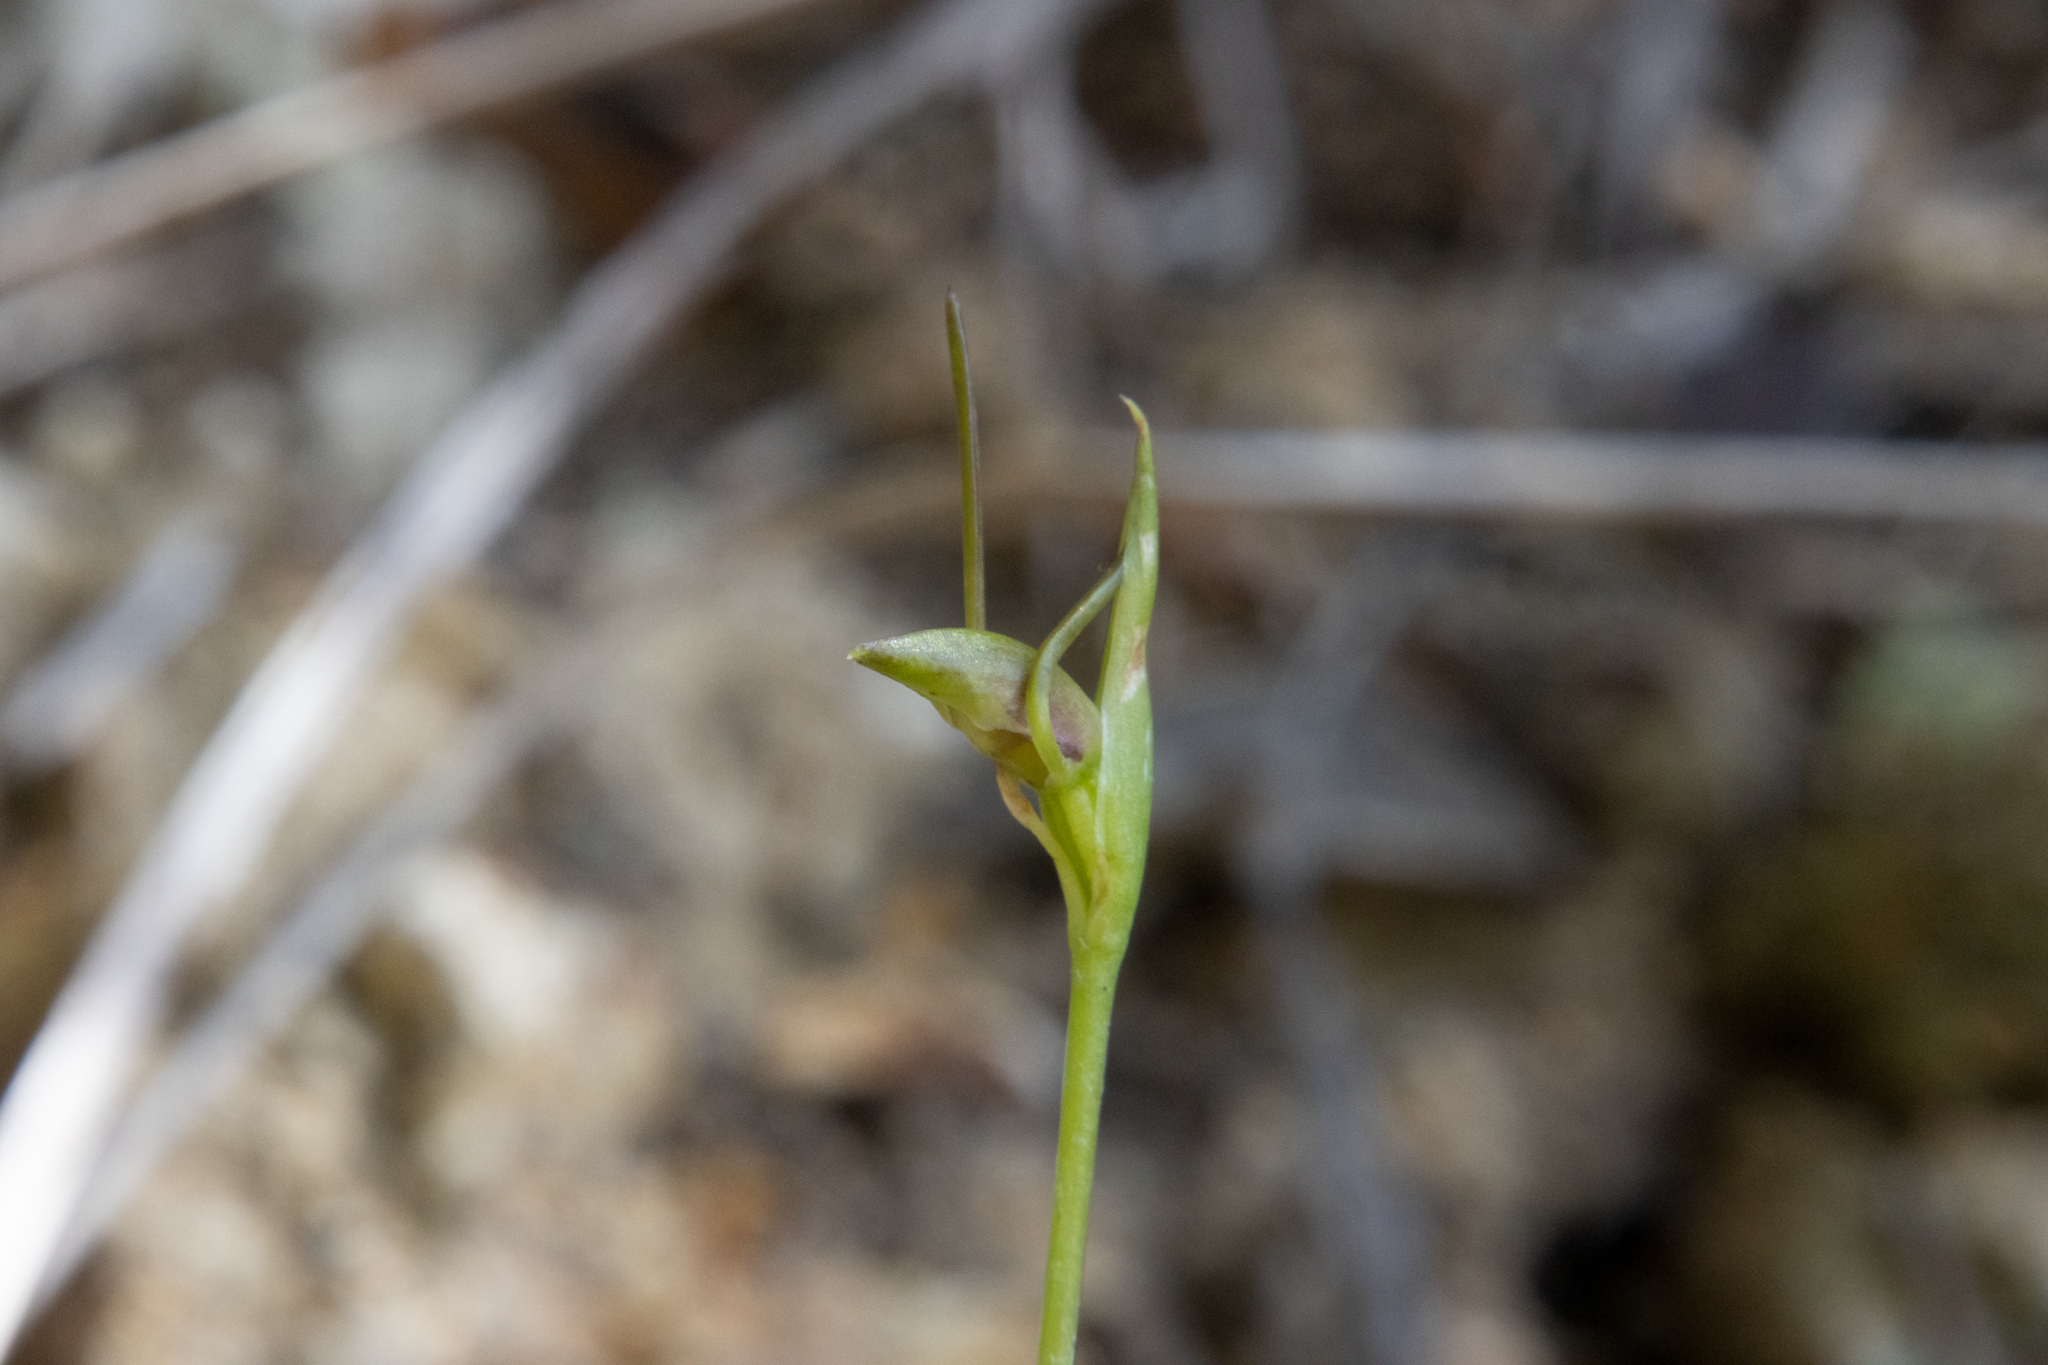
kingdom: Plantae
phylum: Tracheophyta
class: Liliopsida
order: Asparagales
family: Orchidaceae
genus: Orthoceras
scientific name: Orthoceras novae-zeelandiae
